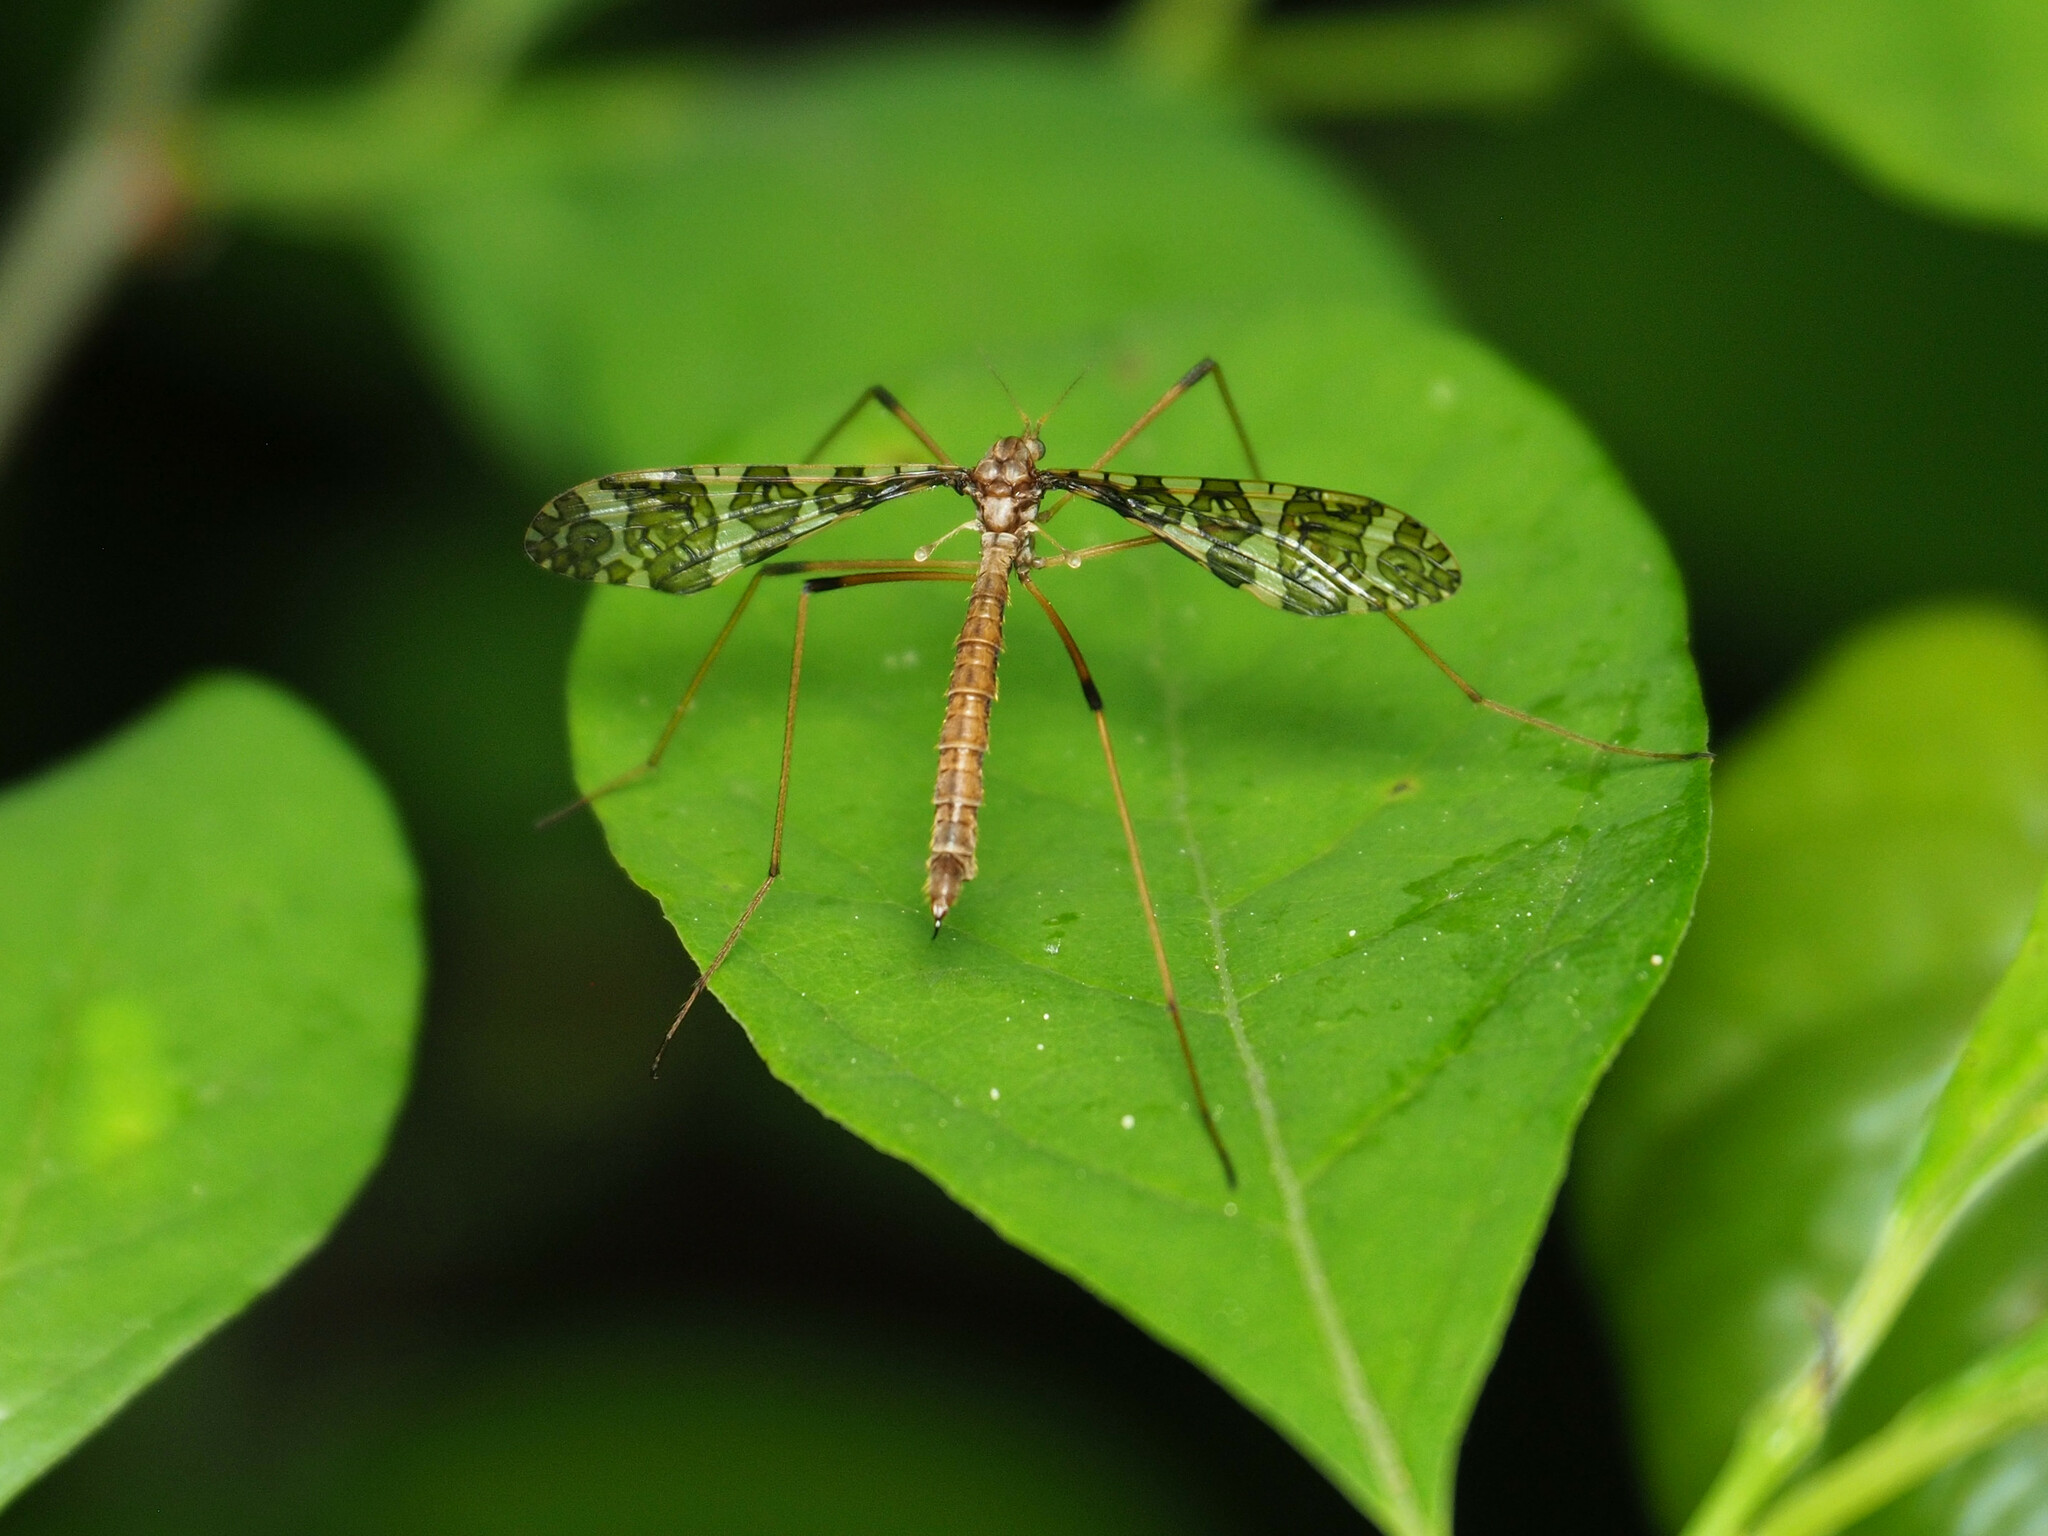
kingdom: Animalia
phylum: Arthropoda
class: Insecta
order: Diptera
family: Limoniidae
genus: Epiphragma
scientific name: Epiphragma fasciapenne
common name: Band-winged crane fly
